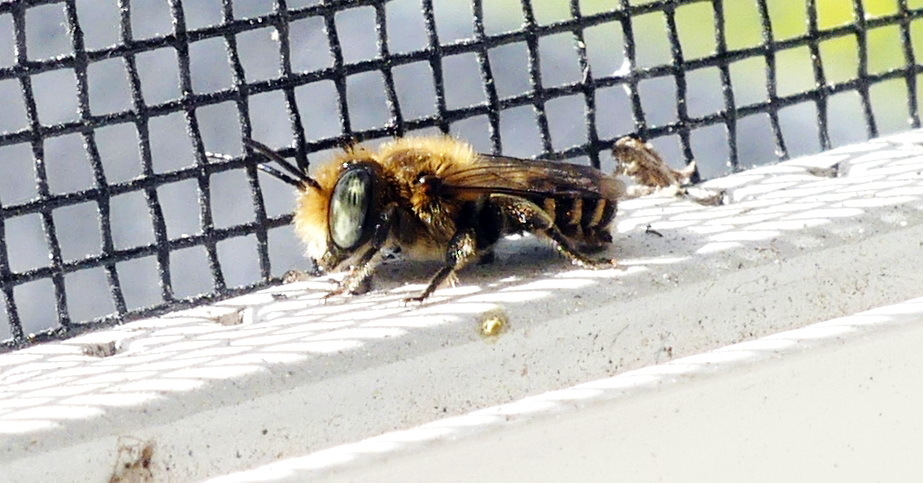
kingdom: Animalia
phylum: Arthropoda
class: Insecta
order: Hymenoptera
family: Megachilidae
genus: Megachile
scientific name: Megachile rotundata
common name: Alfalfa leafcutting bee
